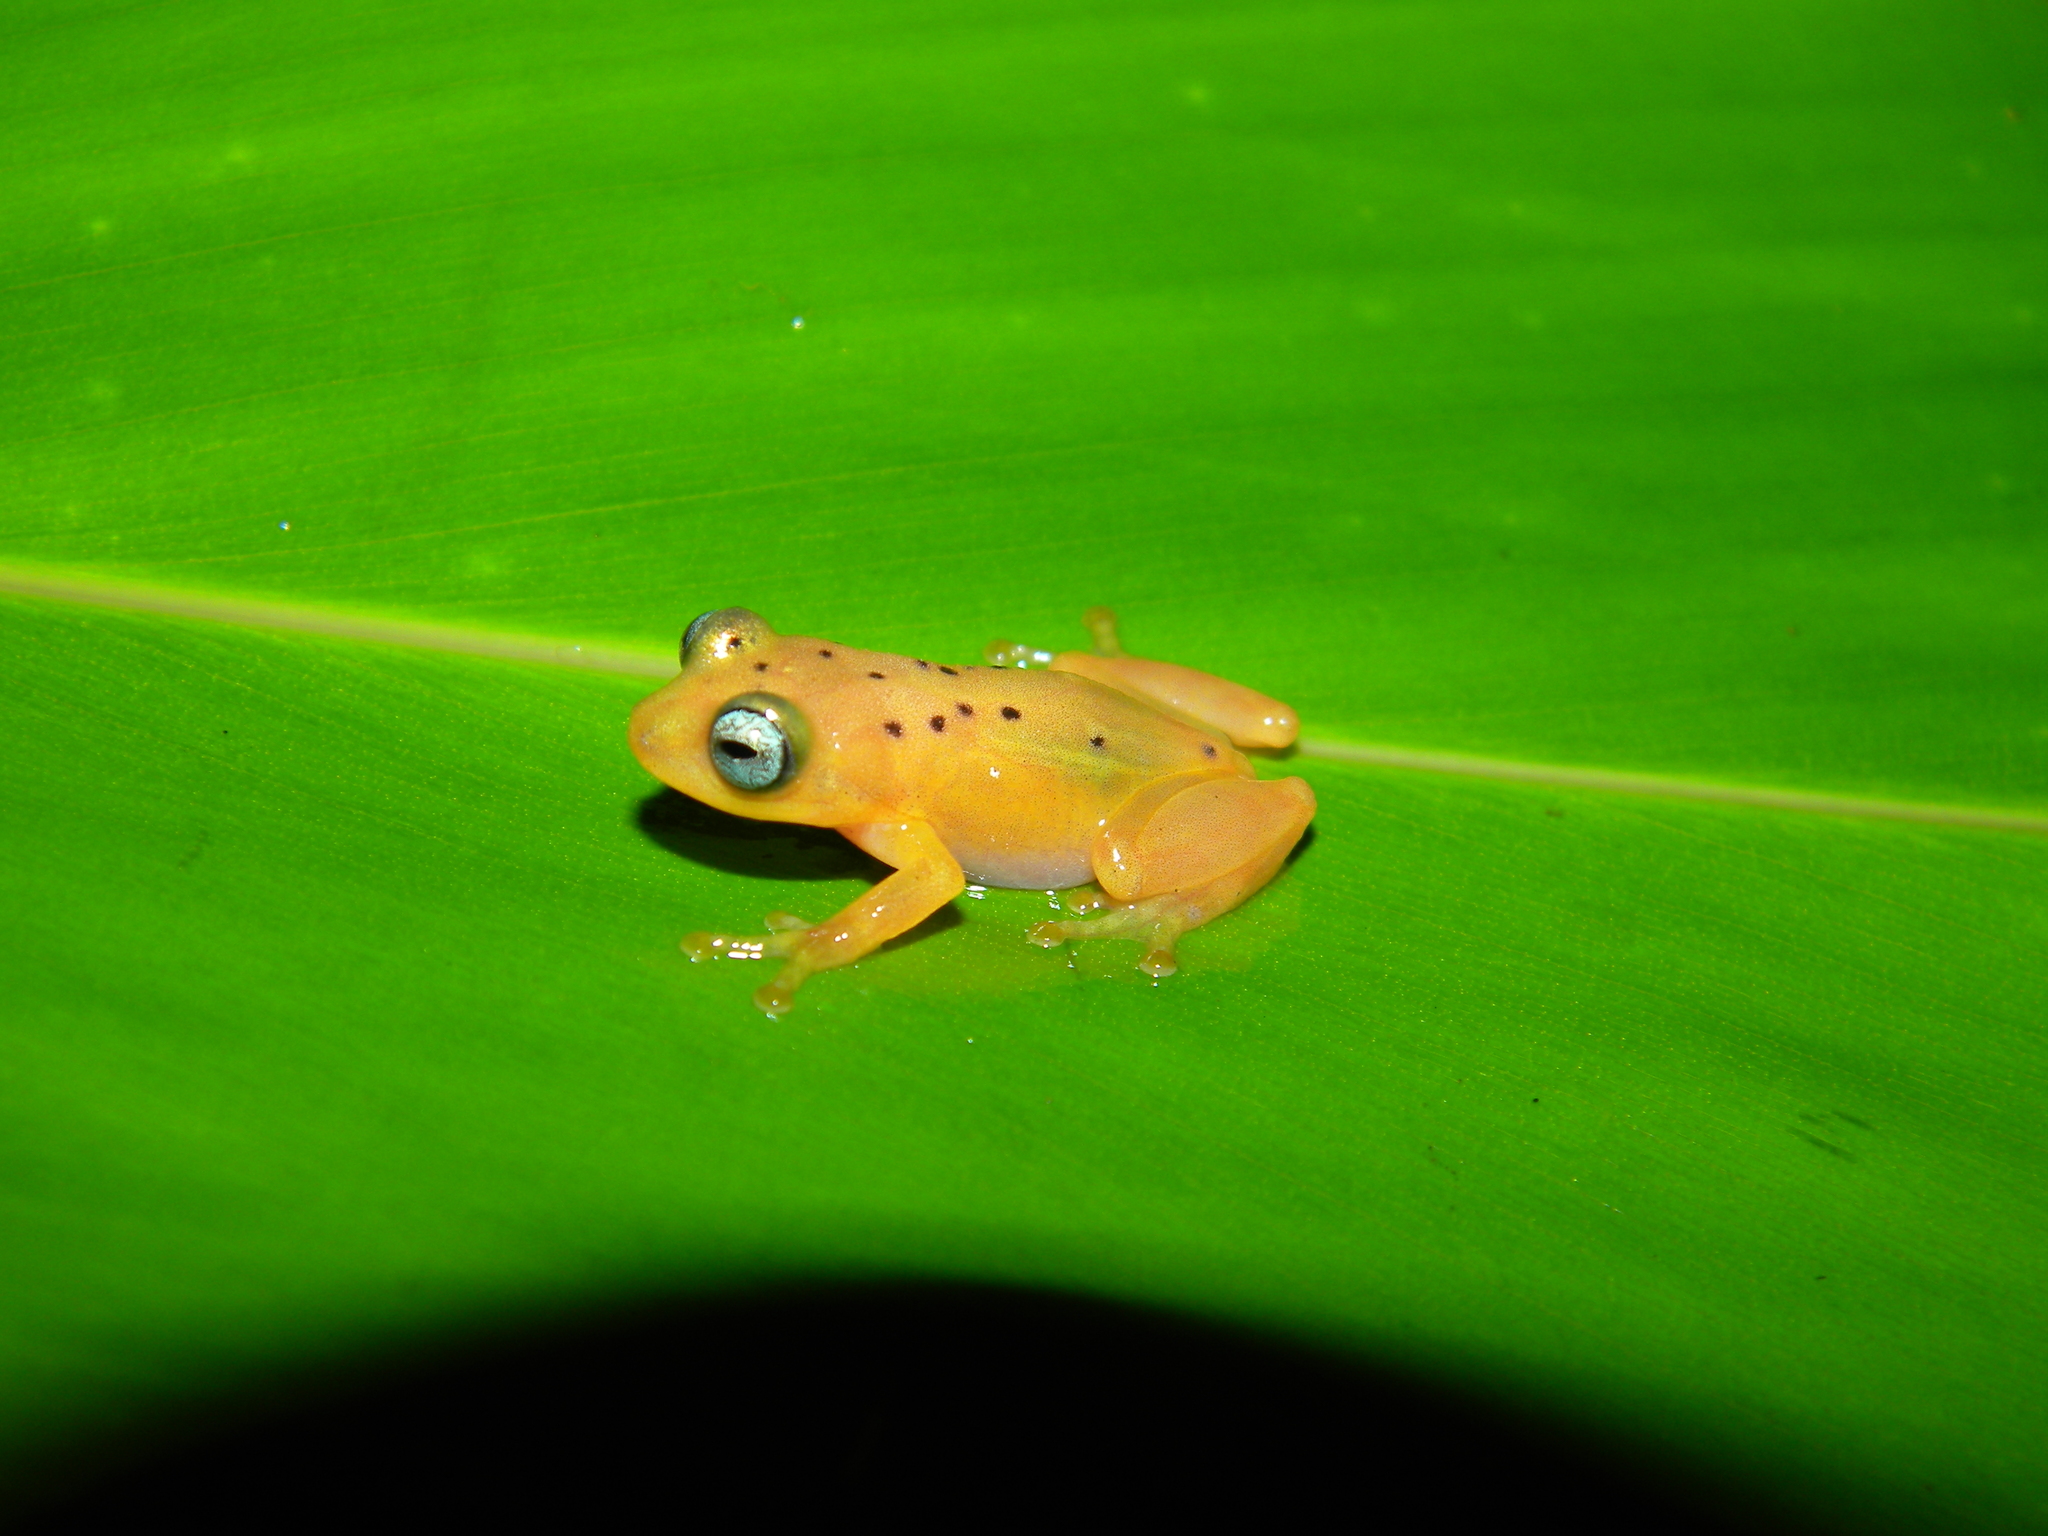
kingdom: Animalia
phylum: Chordata
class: Amphibia
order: Anura
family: Rhacophoridae
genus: Raorchestes
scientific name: Raorchestes manohari
